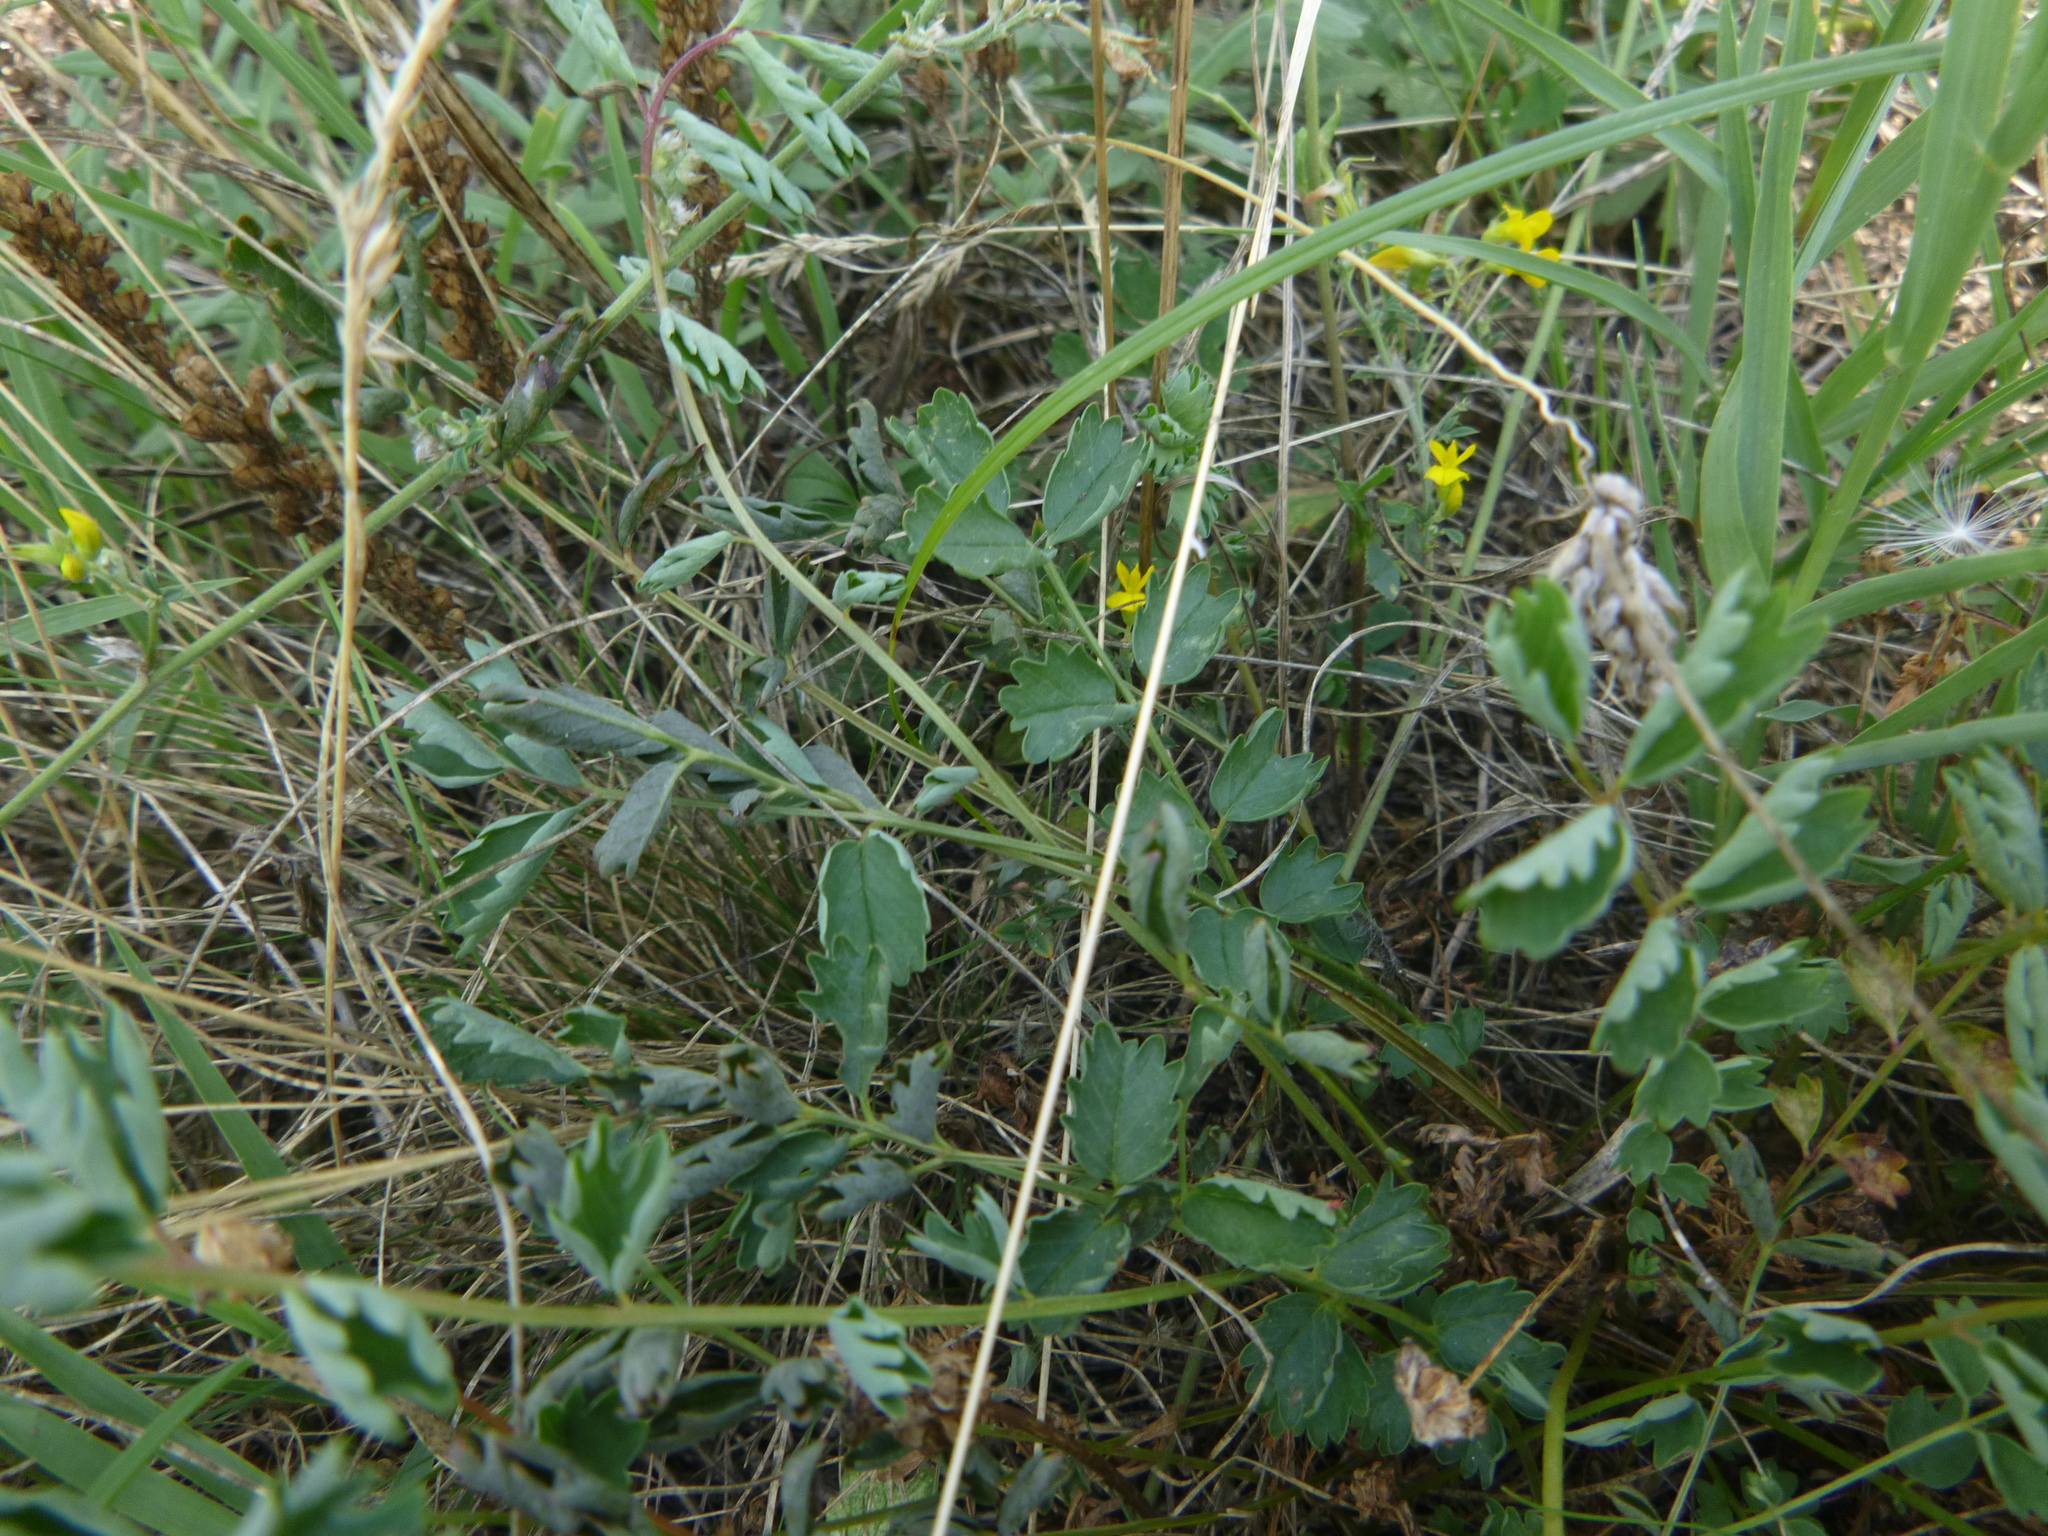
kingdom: Plantae
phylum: Tracheophyta
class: Magnoliopsida
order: Rosales
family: Rosaceae
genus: Poterium
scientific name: Poterium sanguisorba
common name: Salad burnet
